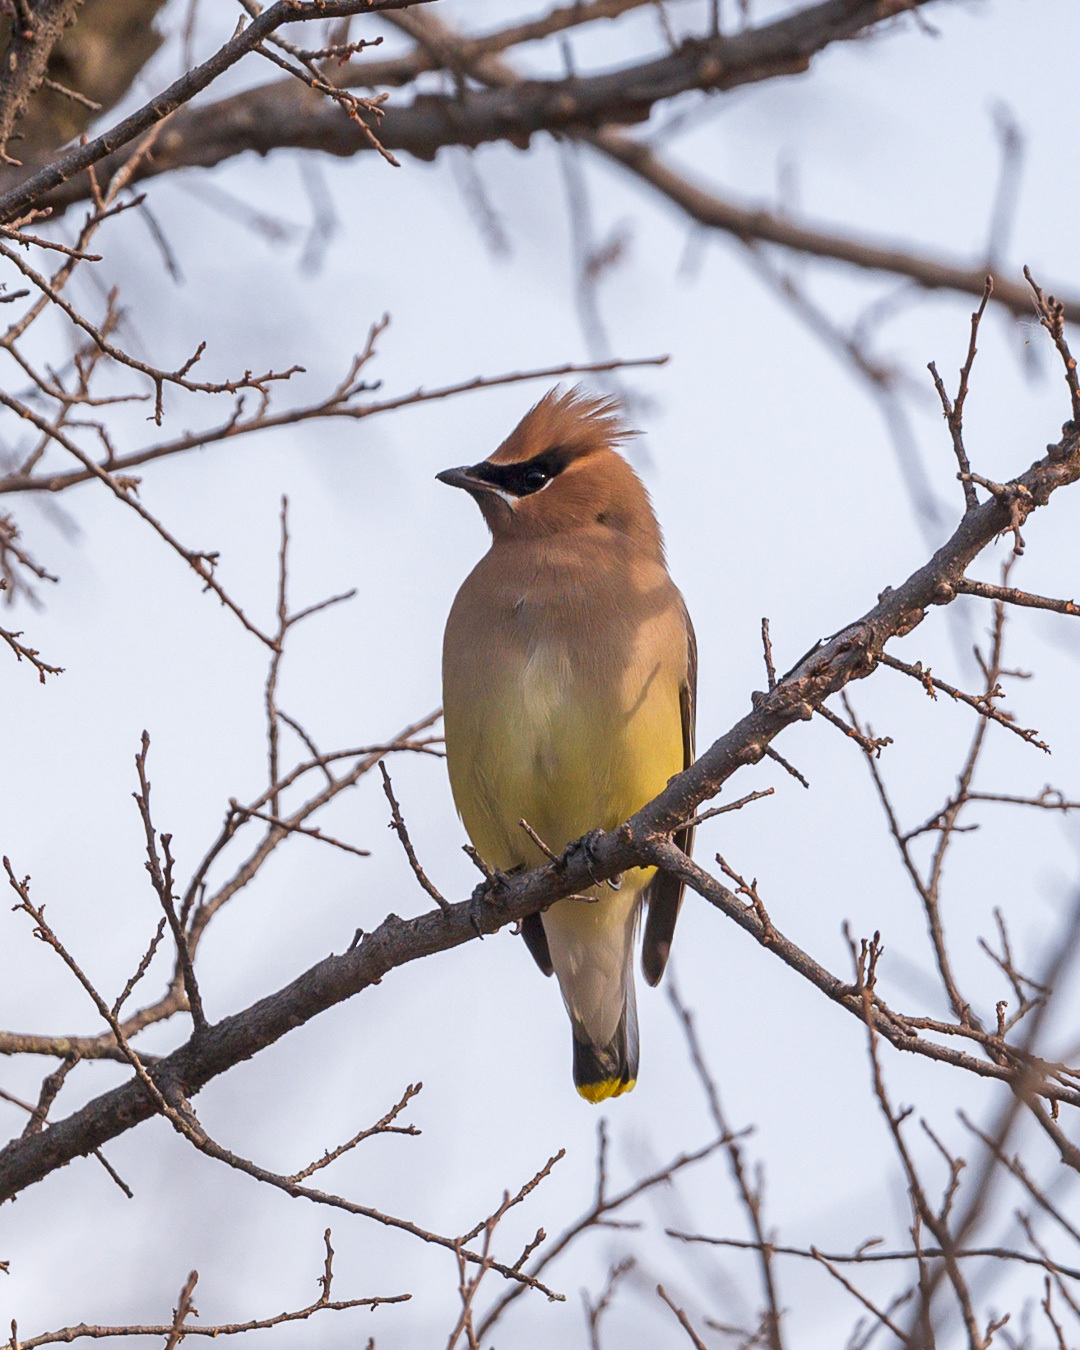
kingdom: Animalia
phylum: Chordata
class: Aves
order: Passeriformes
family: Bombycillidae
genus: Bombycilla
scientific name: Bombycilla cedrorum
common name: Cedar waxwing
